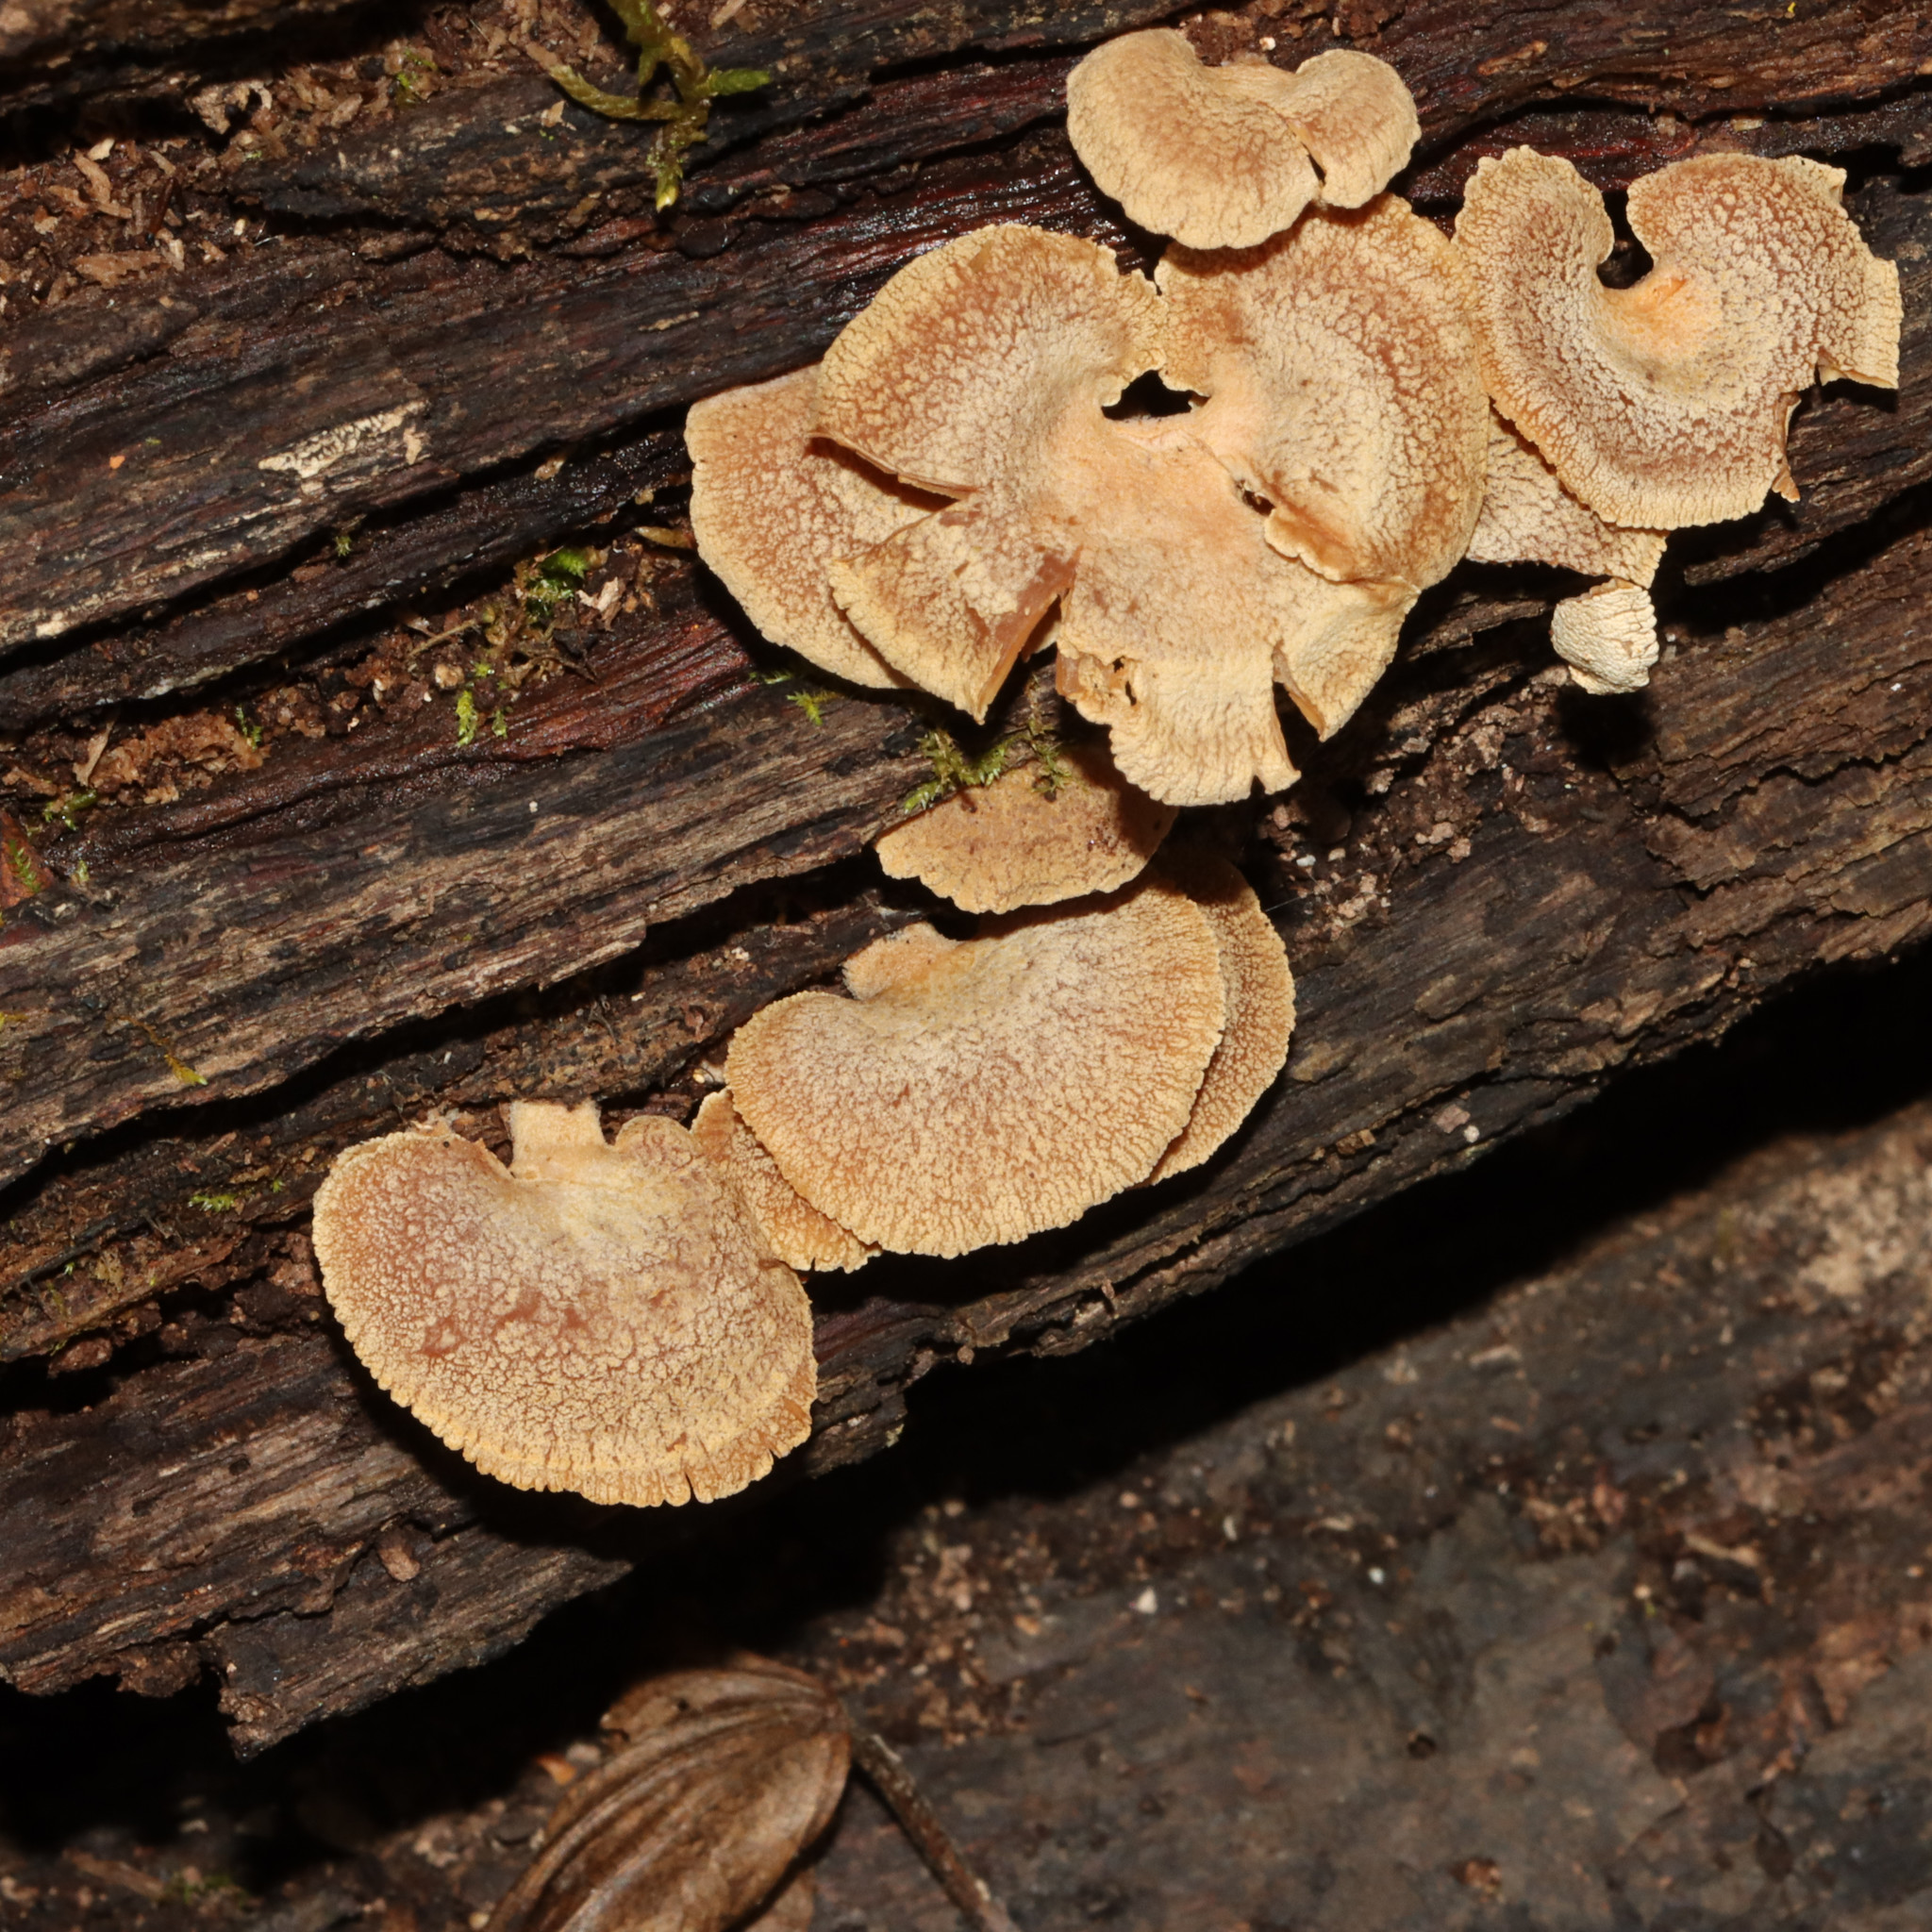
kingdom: Fungi
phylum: Basidiomycota
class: Agaricomycetes
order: Agaricales
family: Mycenaceae
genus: Panellus
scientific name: Panellus stipticus
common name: Bitter oysterling
